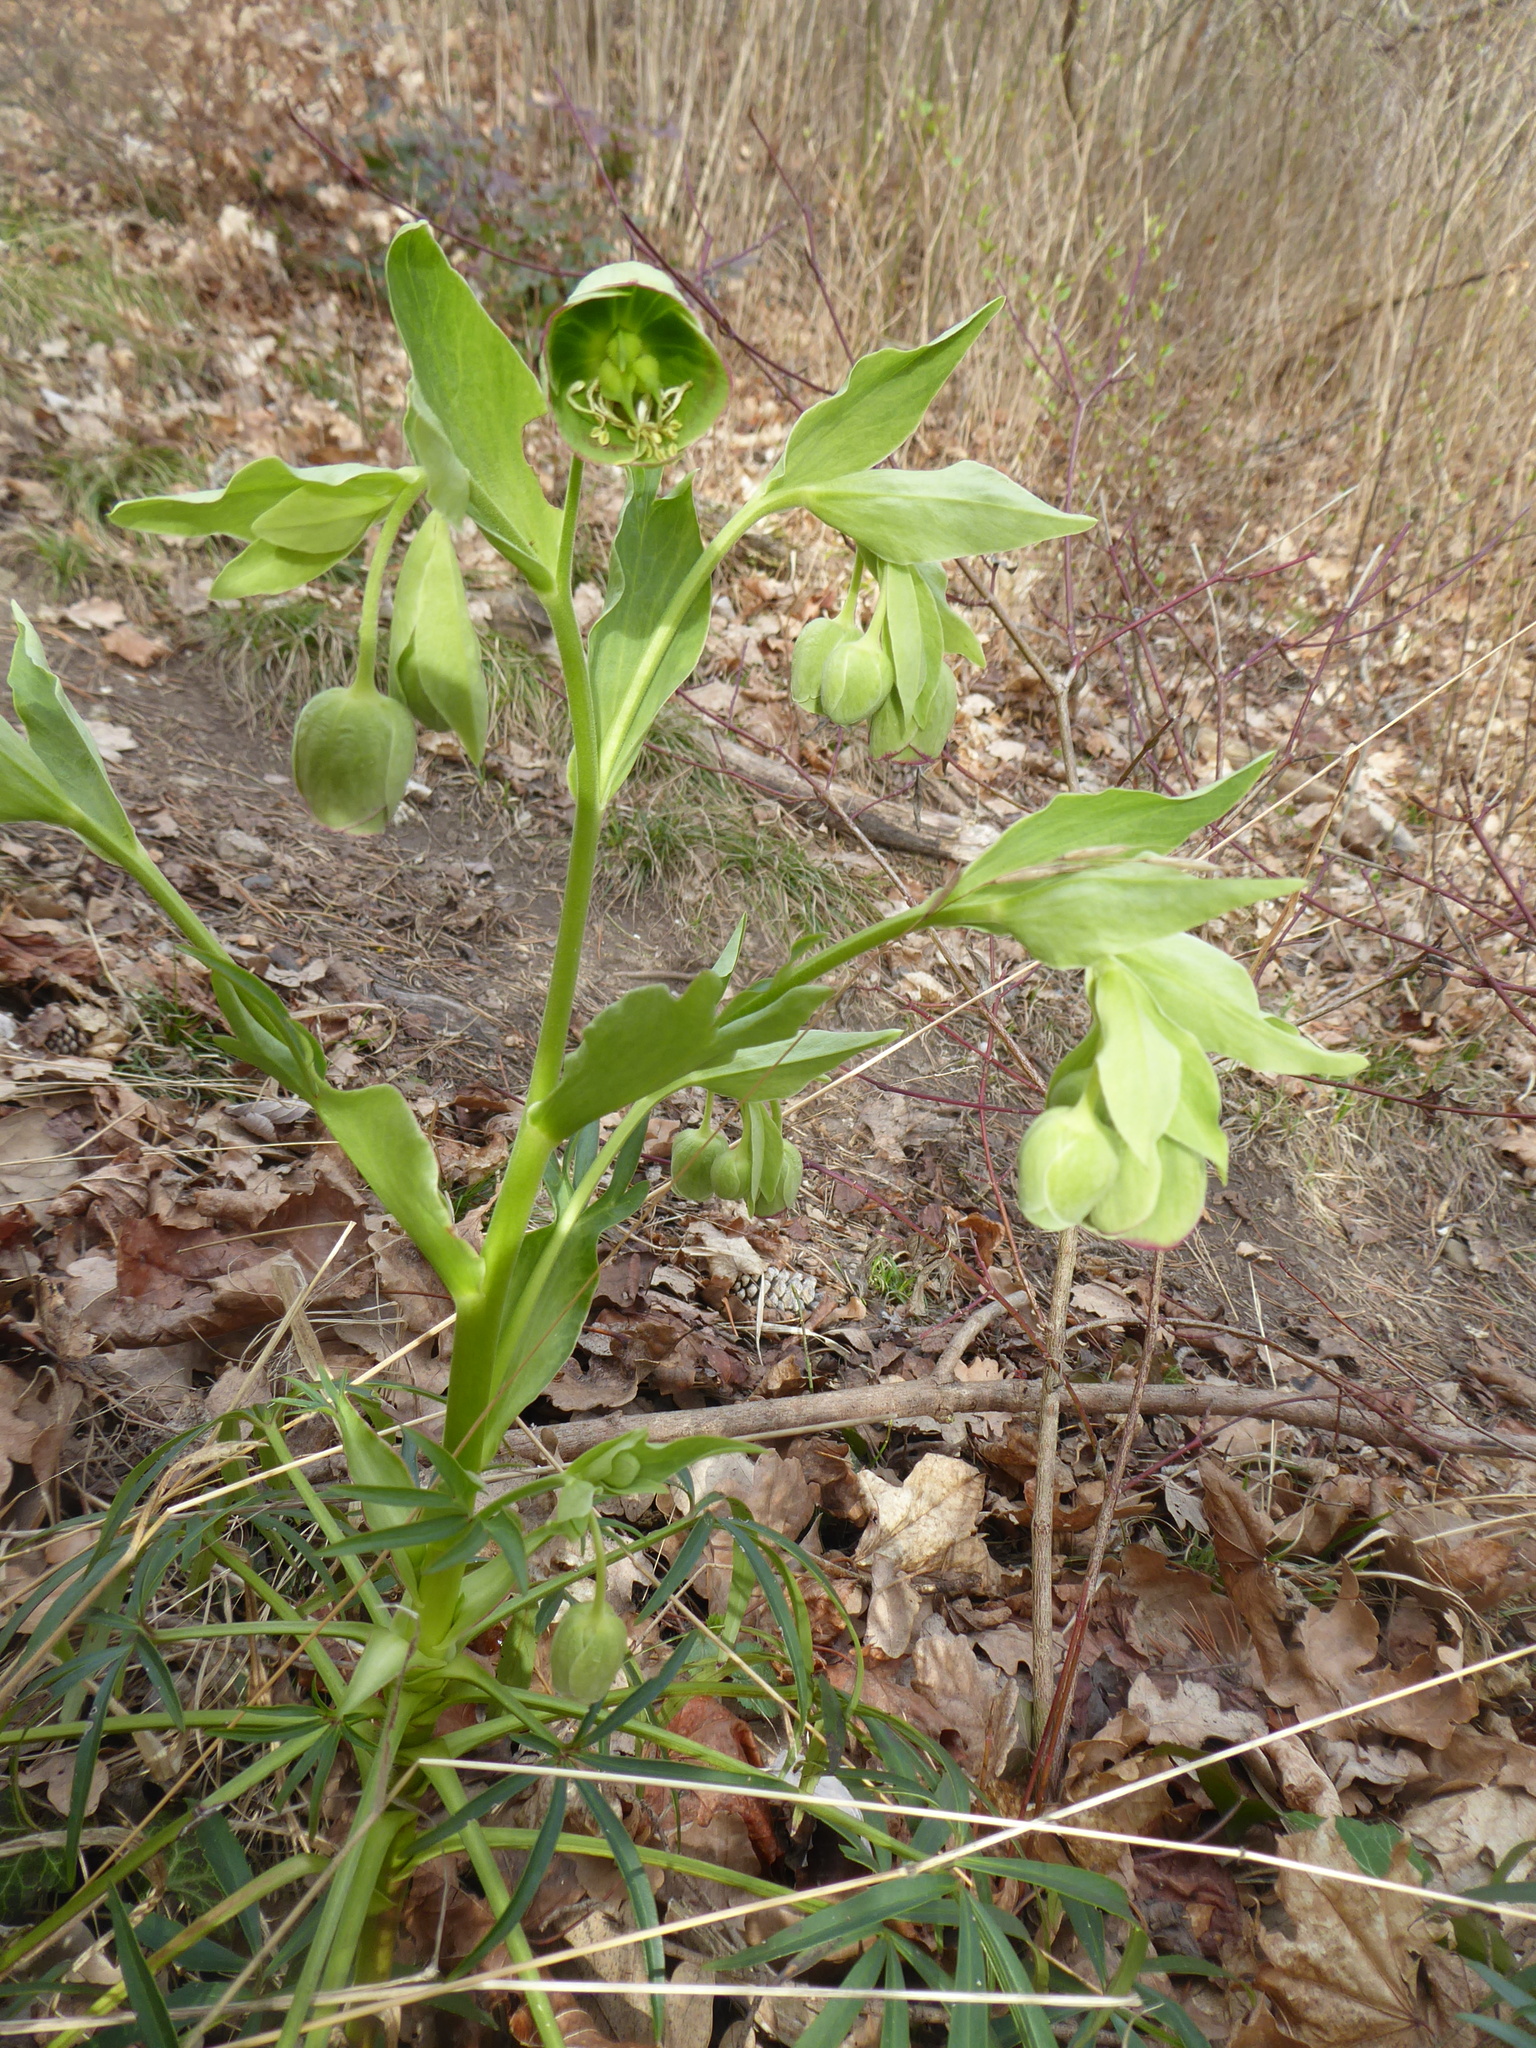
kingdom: Plantae
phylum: Tracheophyta
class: Magnoliopsida
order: Ranunculales
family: Ranunculaceae
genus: Helleborus
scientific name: Helleborus foetidus
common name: Stinking hellebore
